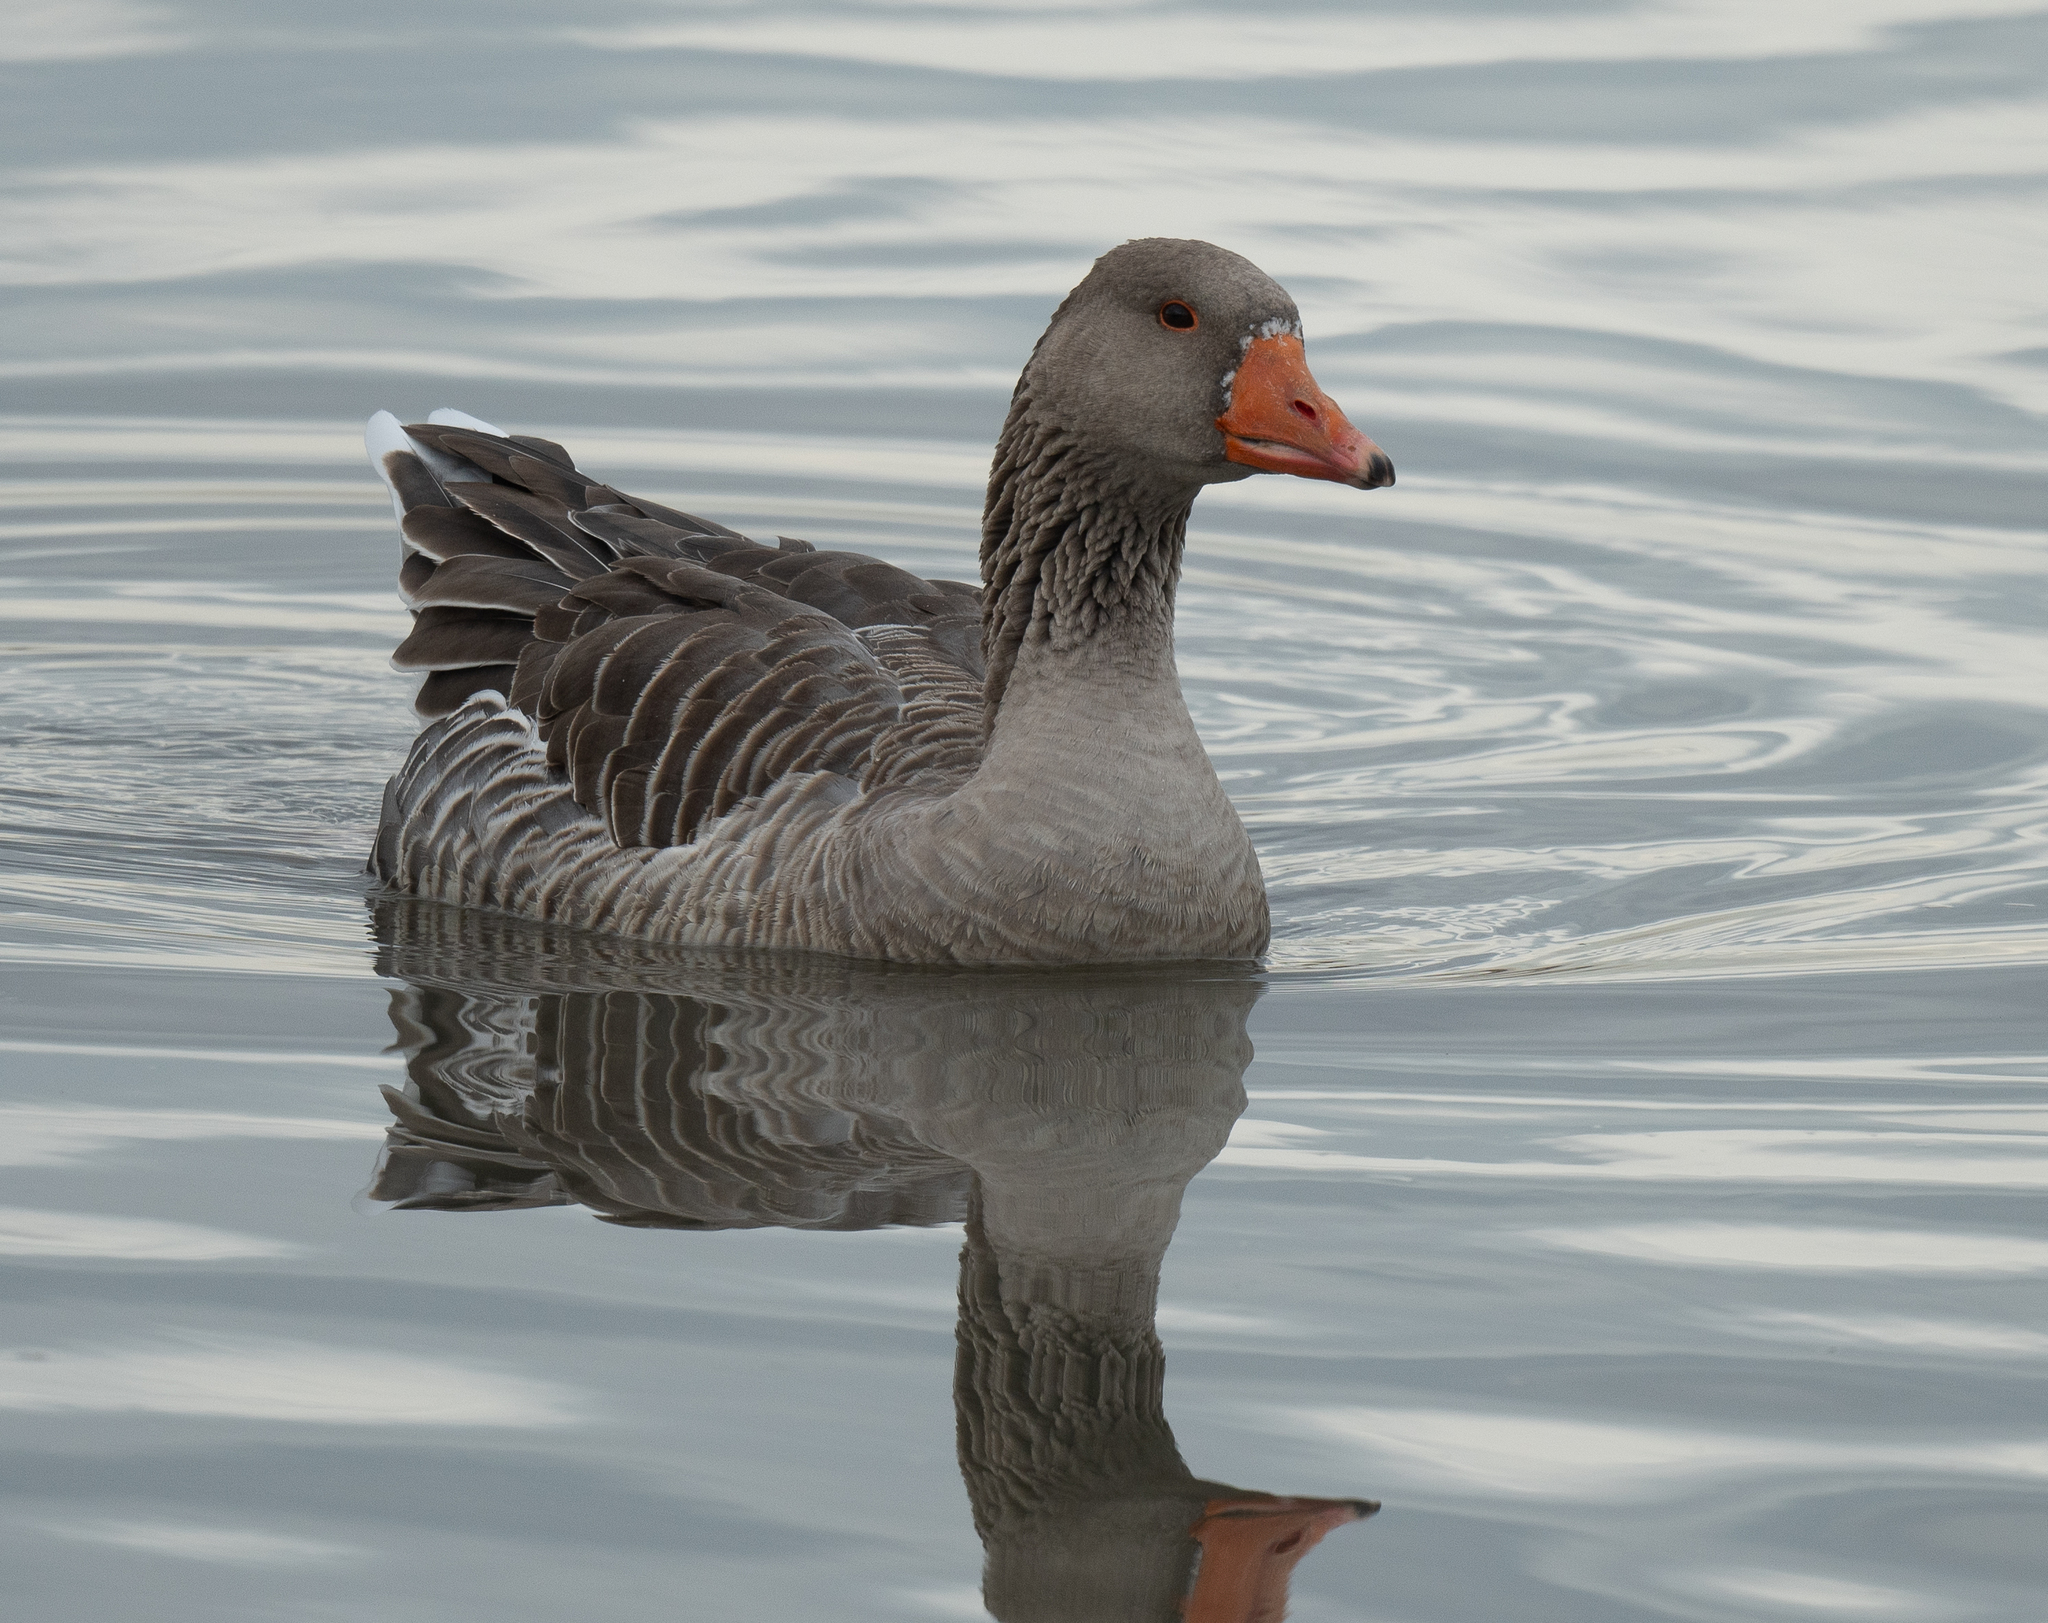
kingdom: Animalia
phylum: Chordata
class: Aves
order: Anseriformes
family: Anatidae
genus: Anser
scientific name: Anser anser
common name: Greylag goose
